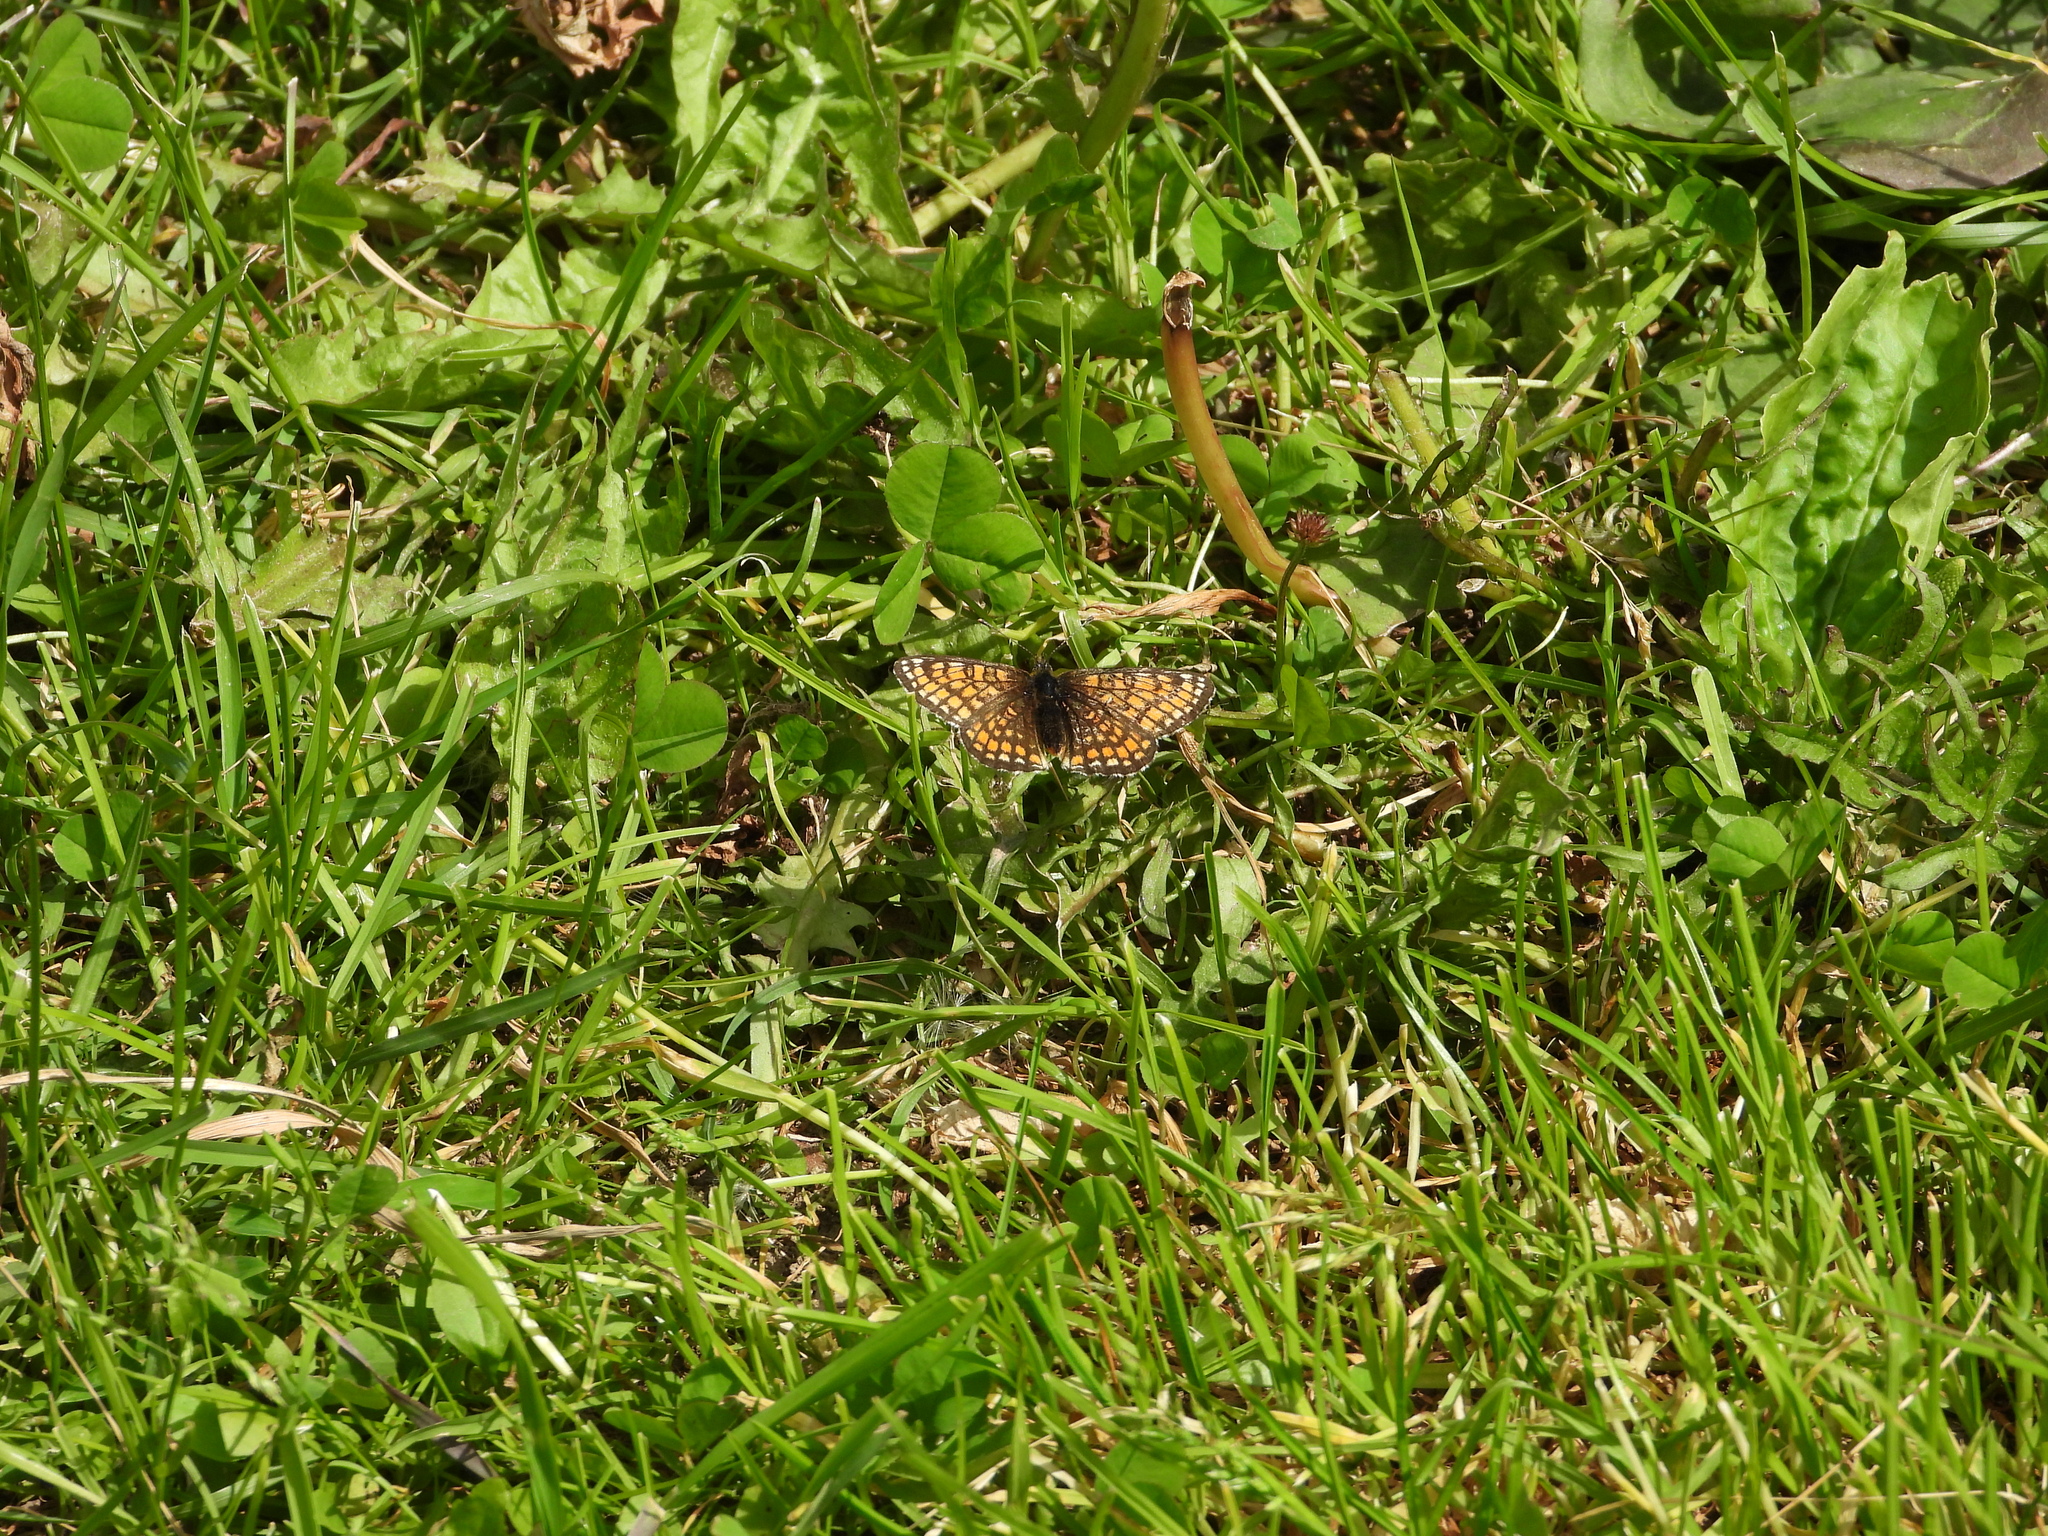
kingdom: Animalia
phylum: Arthropoda
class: Insecta
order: Lepidoptera
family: Nymphalidae
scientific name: Nymphalidae
